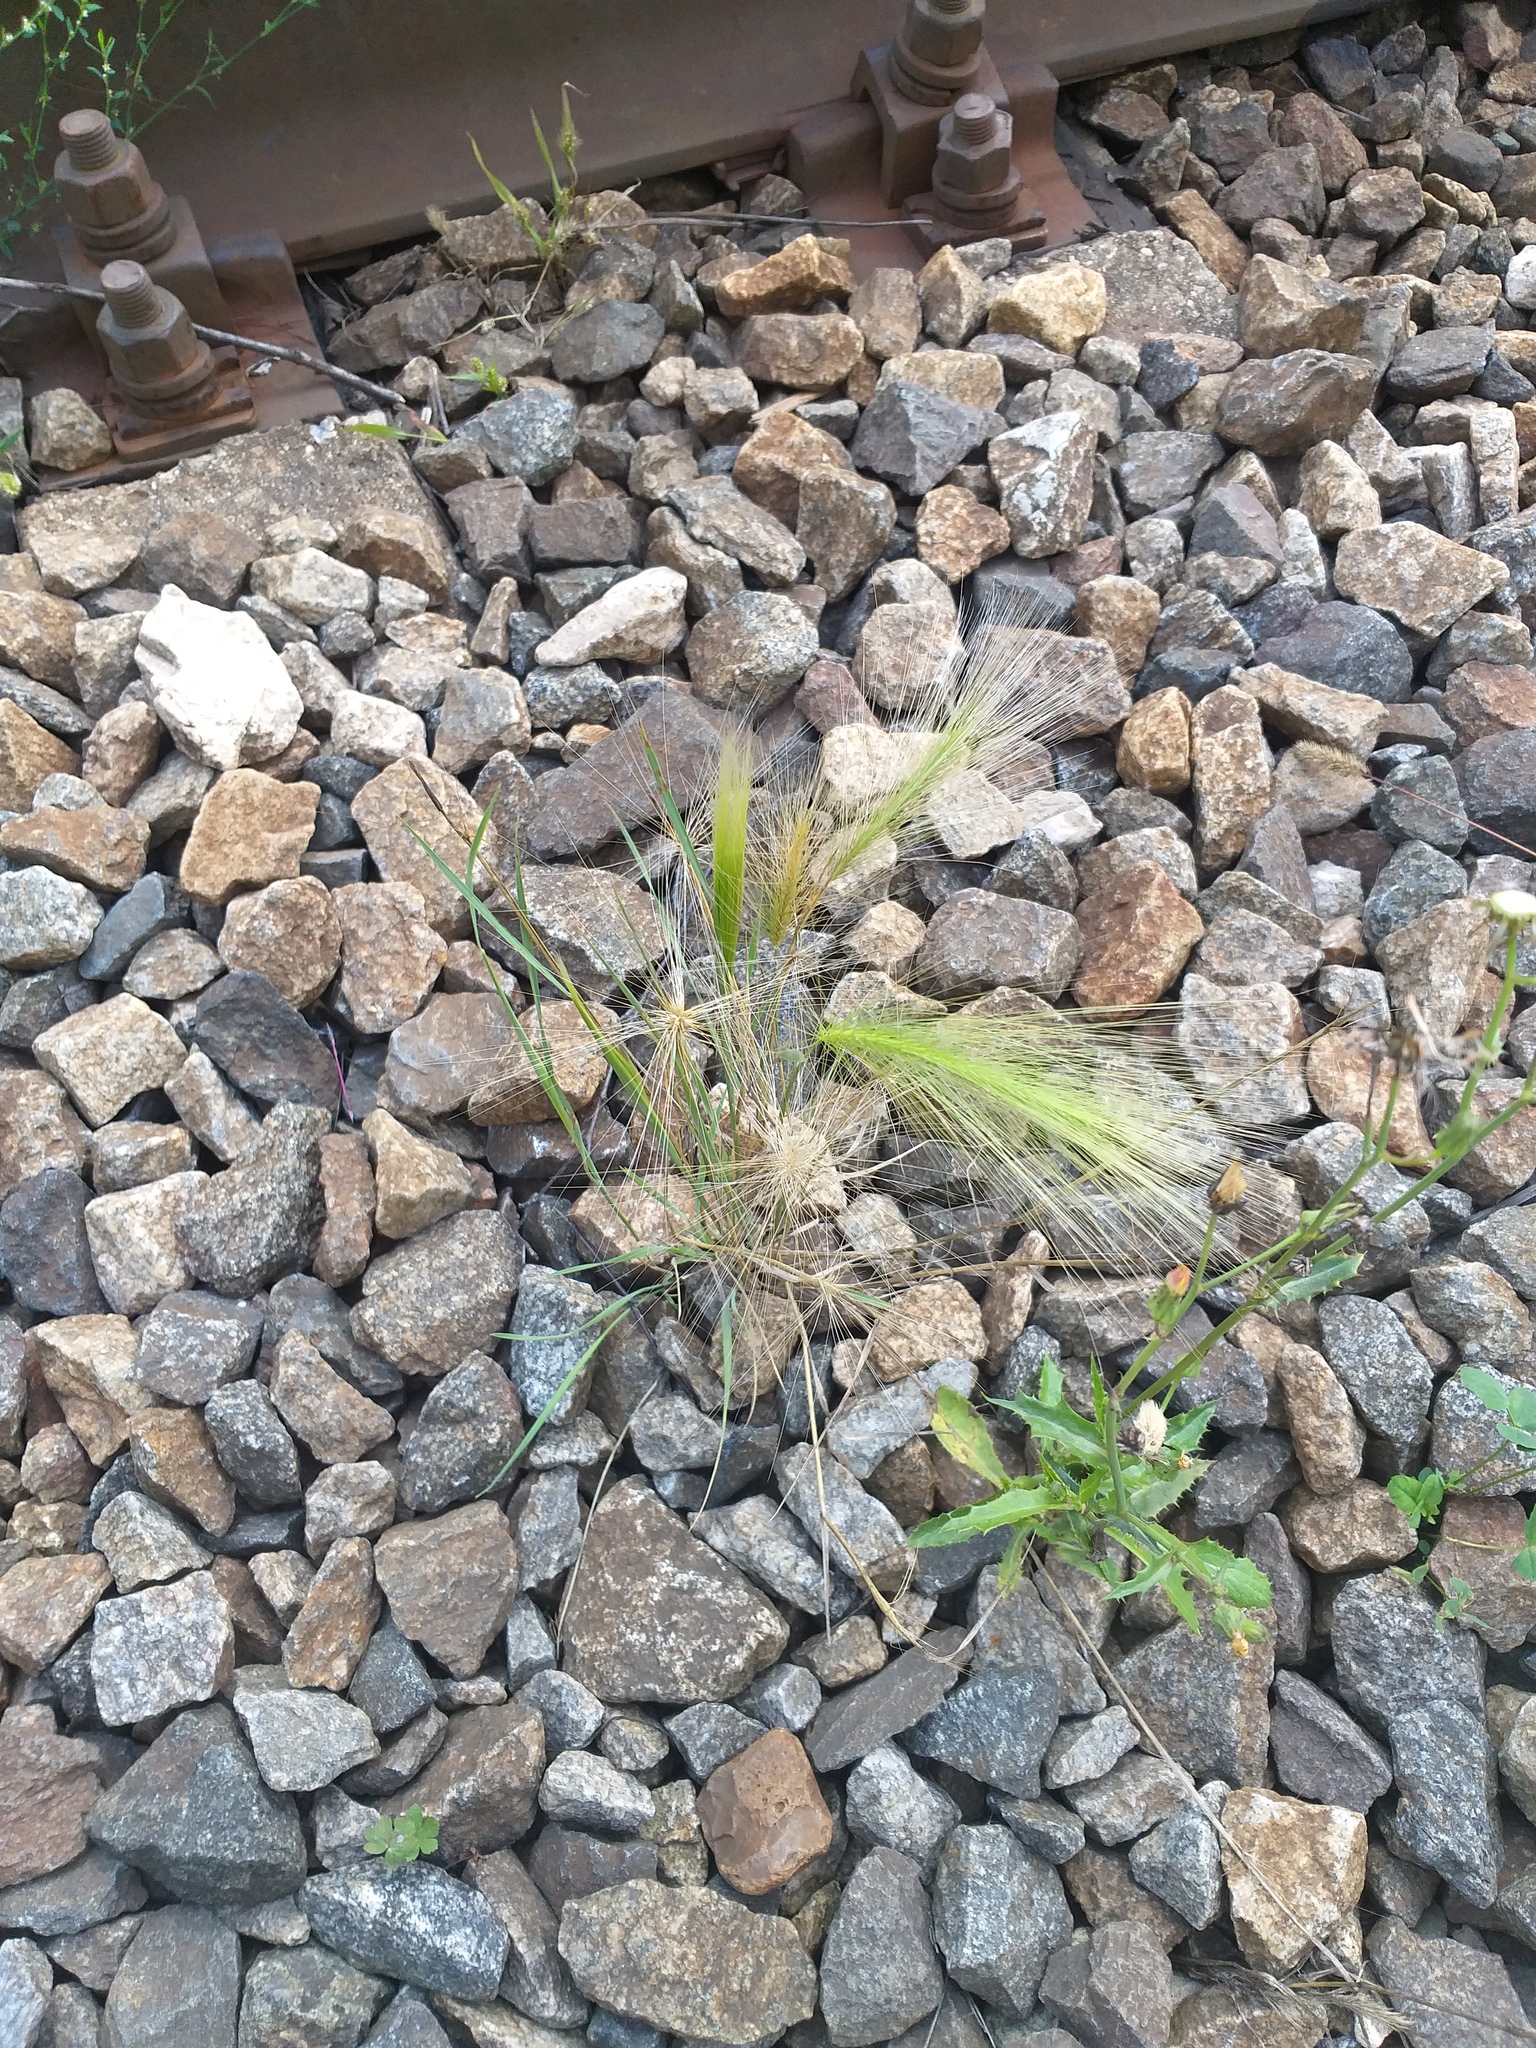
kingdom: Plantae
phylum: Tracheophyta
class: Liliopsida
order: Poales
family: Poaceae
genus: Hordeum
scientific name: Hordeum jubatum
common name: Foxtail barley
